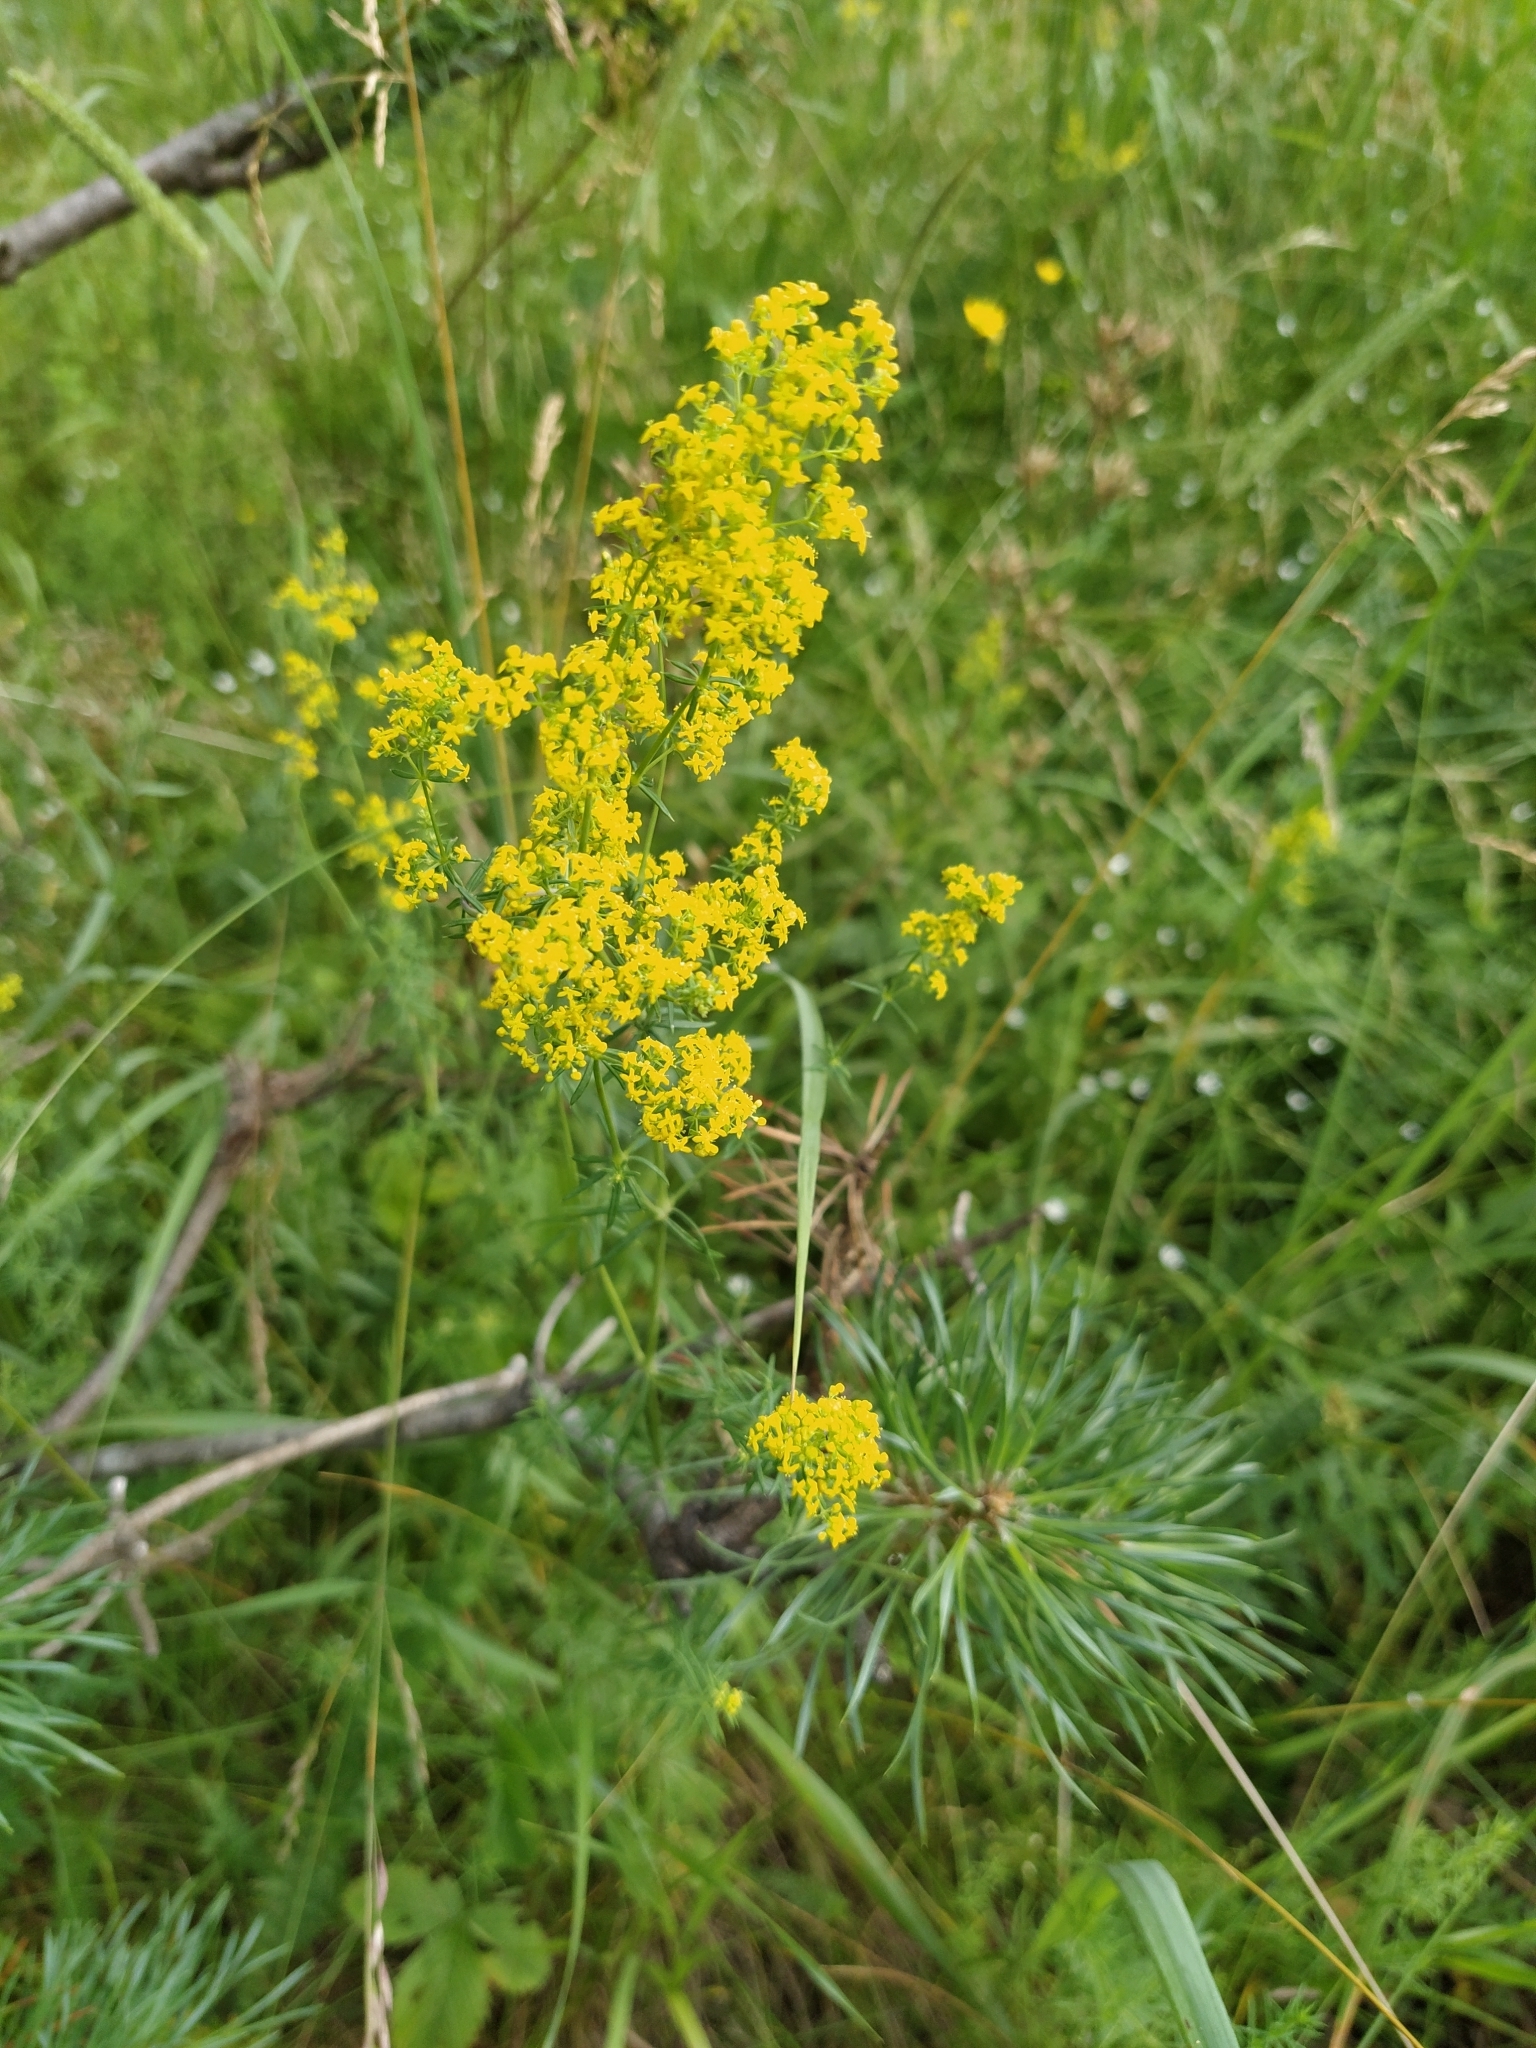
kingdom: Plantae
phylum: Tracheophyta
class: Magnoliopsida
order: Gentianales
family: Rubiaceae
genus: Galium
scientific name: Galium verum
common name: Lady's bedstraw
